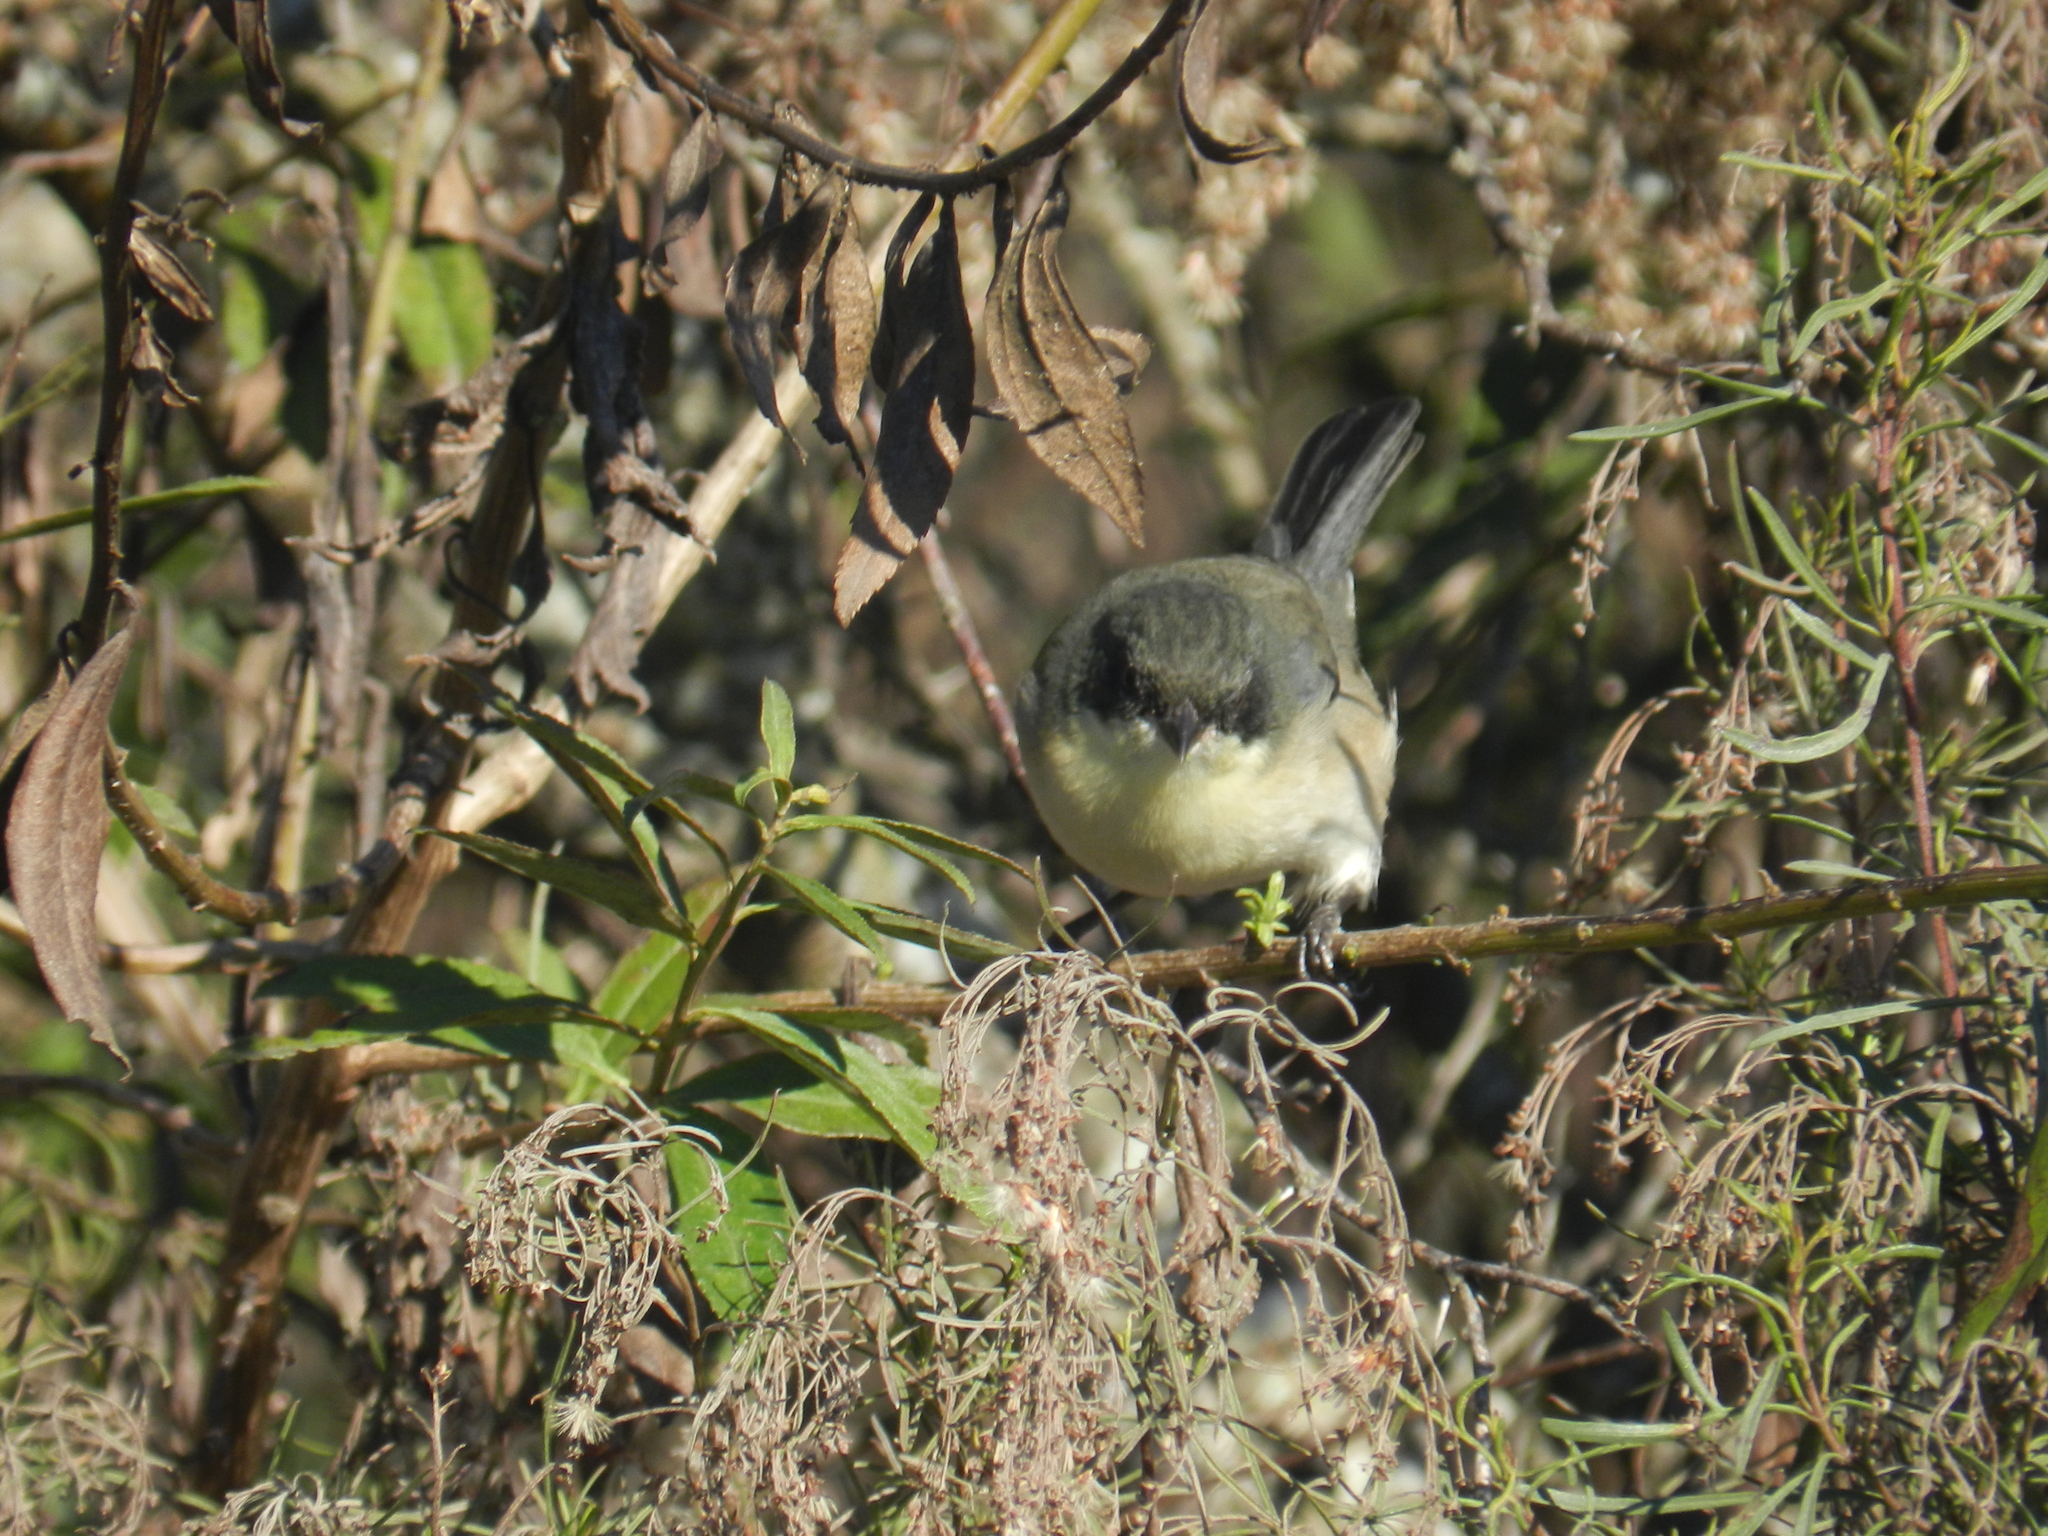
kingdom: Animalia
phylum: Chordata
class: Aves
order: Passeriformes
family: Thraupidae
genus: Microspingus
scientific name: Microspingus melanoleucus
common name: Black-capped warbling-finch
